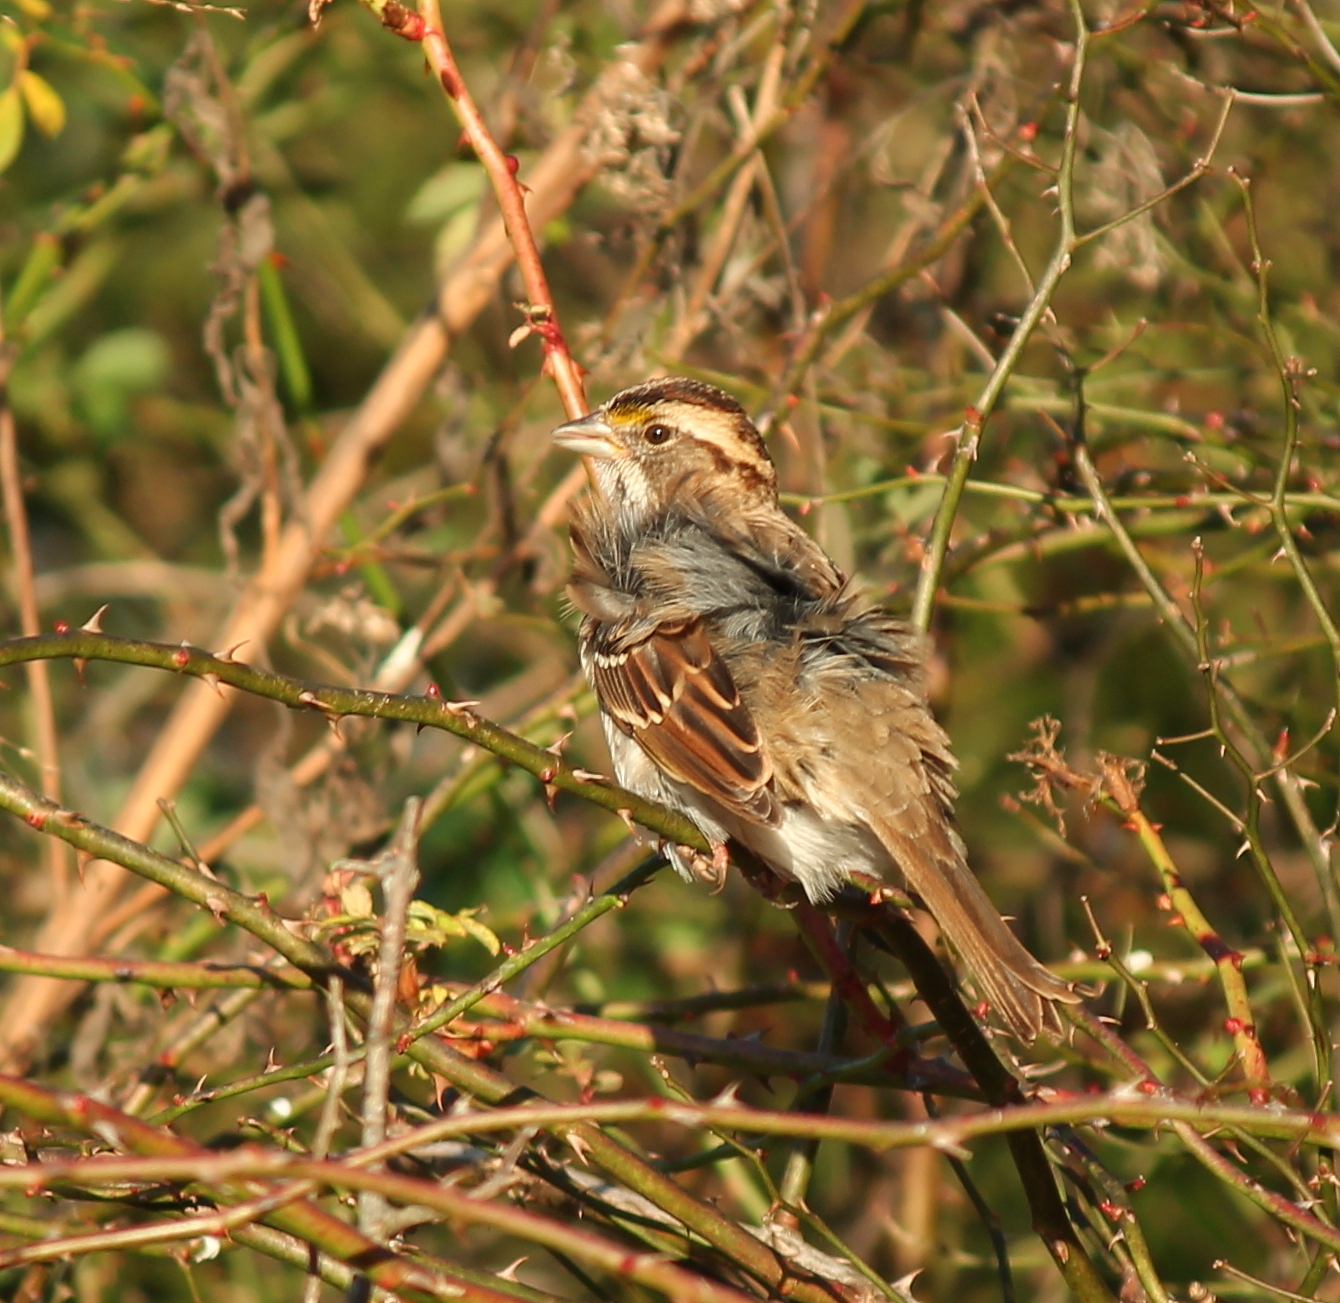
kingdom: Animalia
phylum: Chordata
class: Aves
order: Passeriformes
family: Passerellidae
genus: Zonotrichia
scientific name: Zonotrichia albicollis
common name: White-throated sparrow
